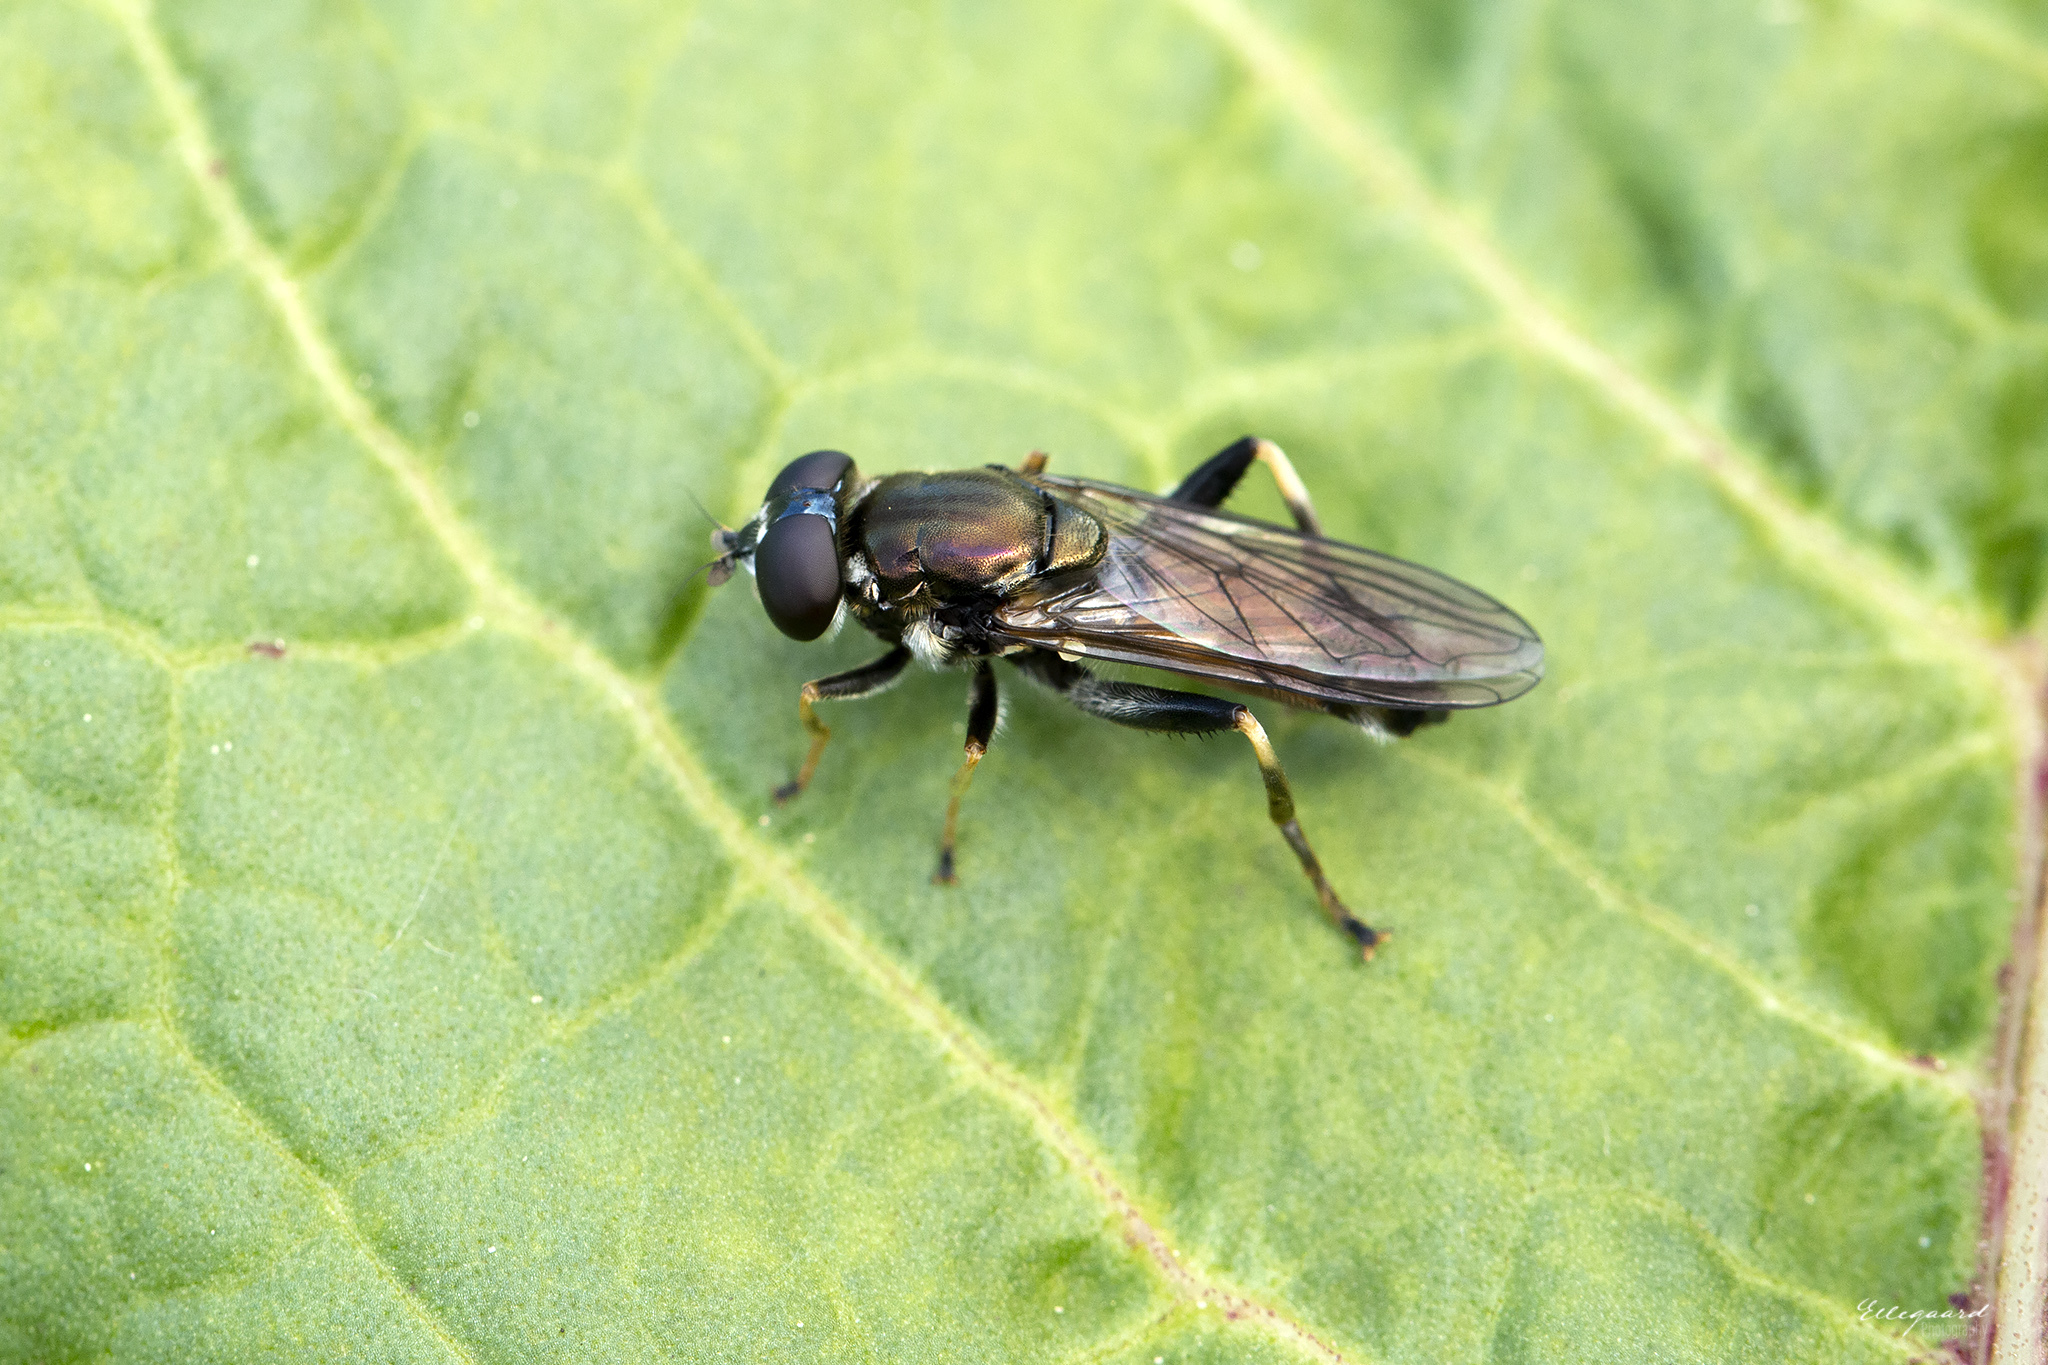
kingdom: Animalia
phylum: Arthropoda
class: Insecta
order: Diptera
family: Syrphidae
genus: Xylota
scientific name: Xylota segnis
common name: Brown-toed forest fly
